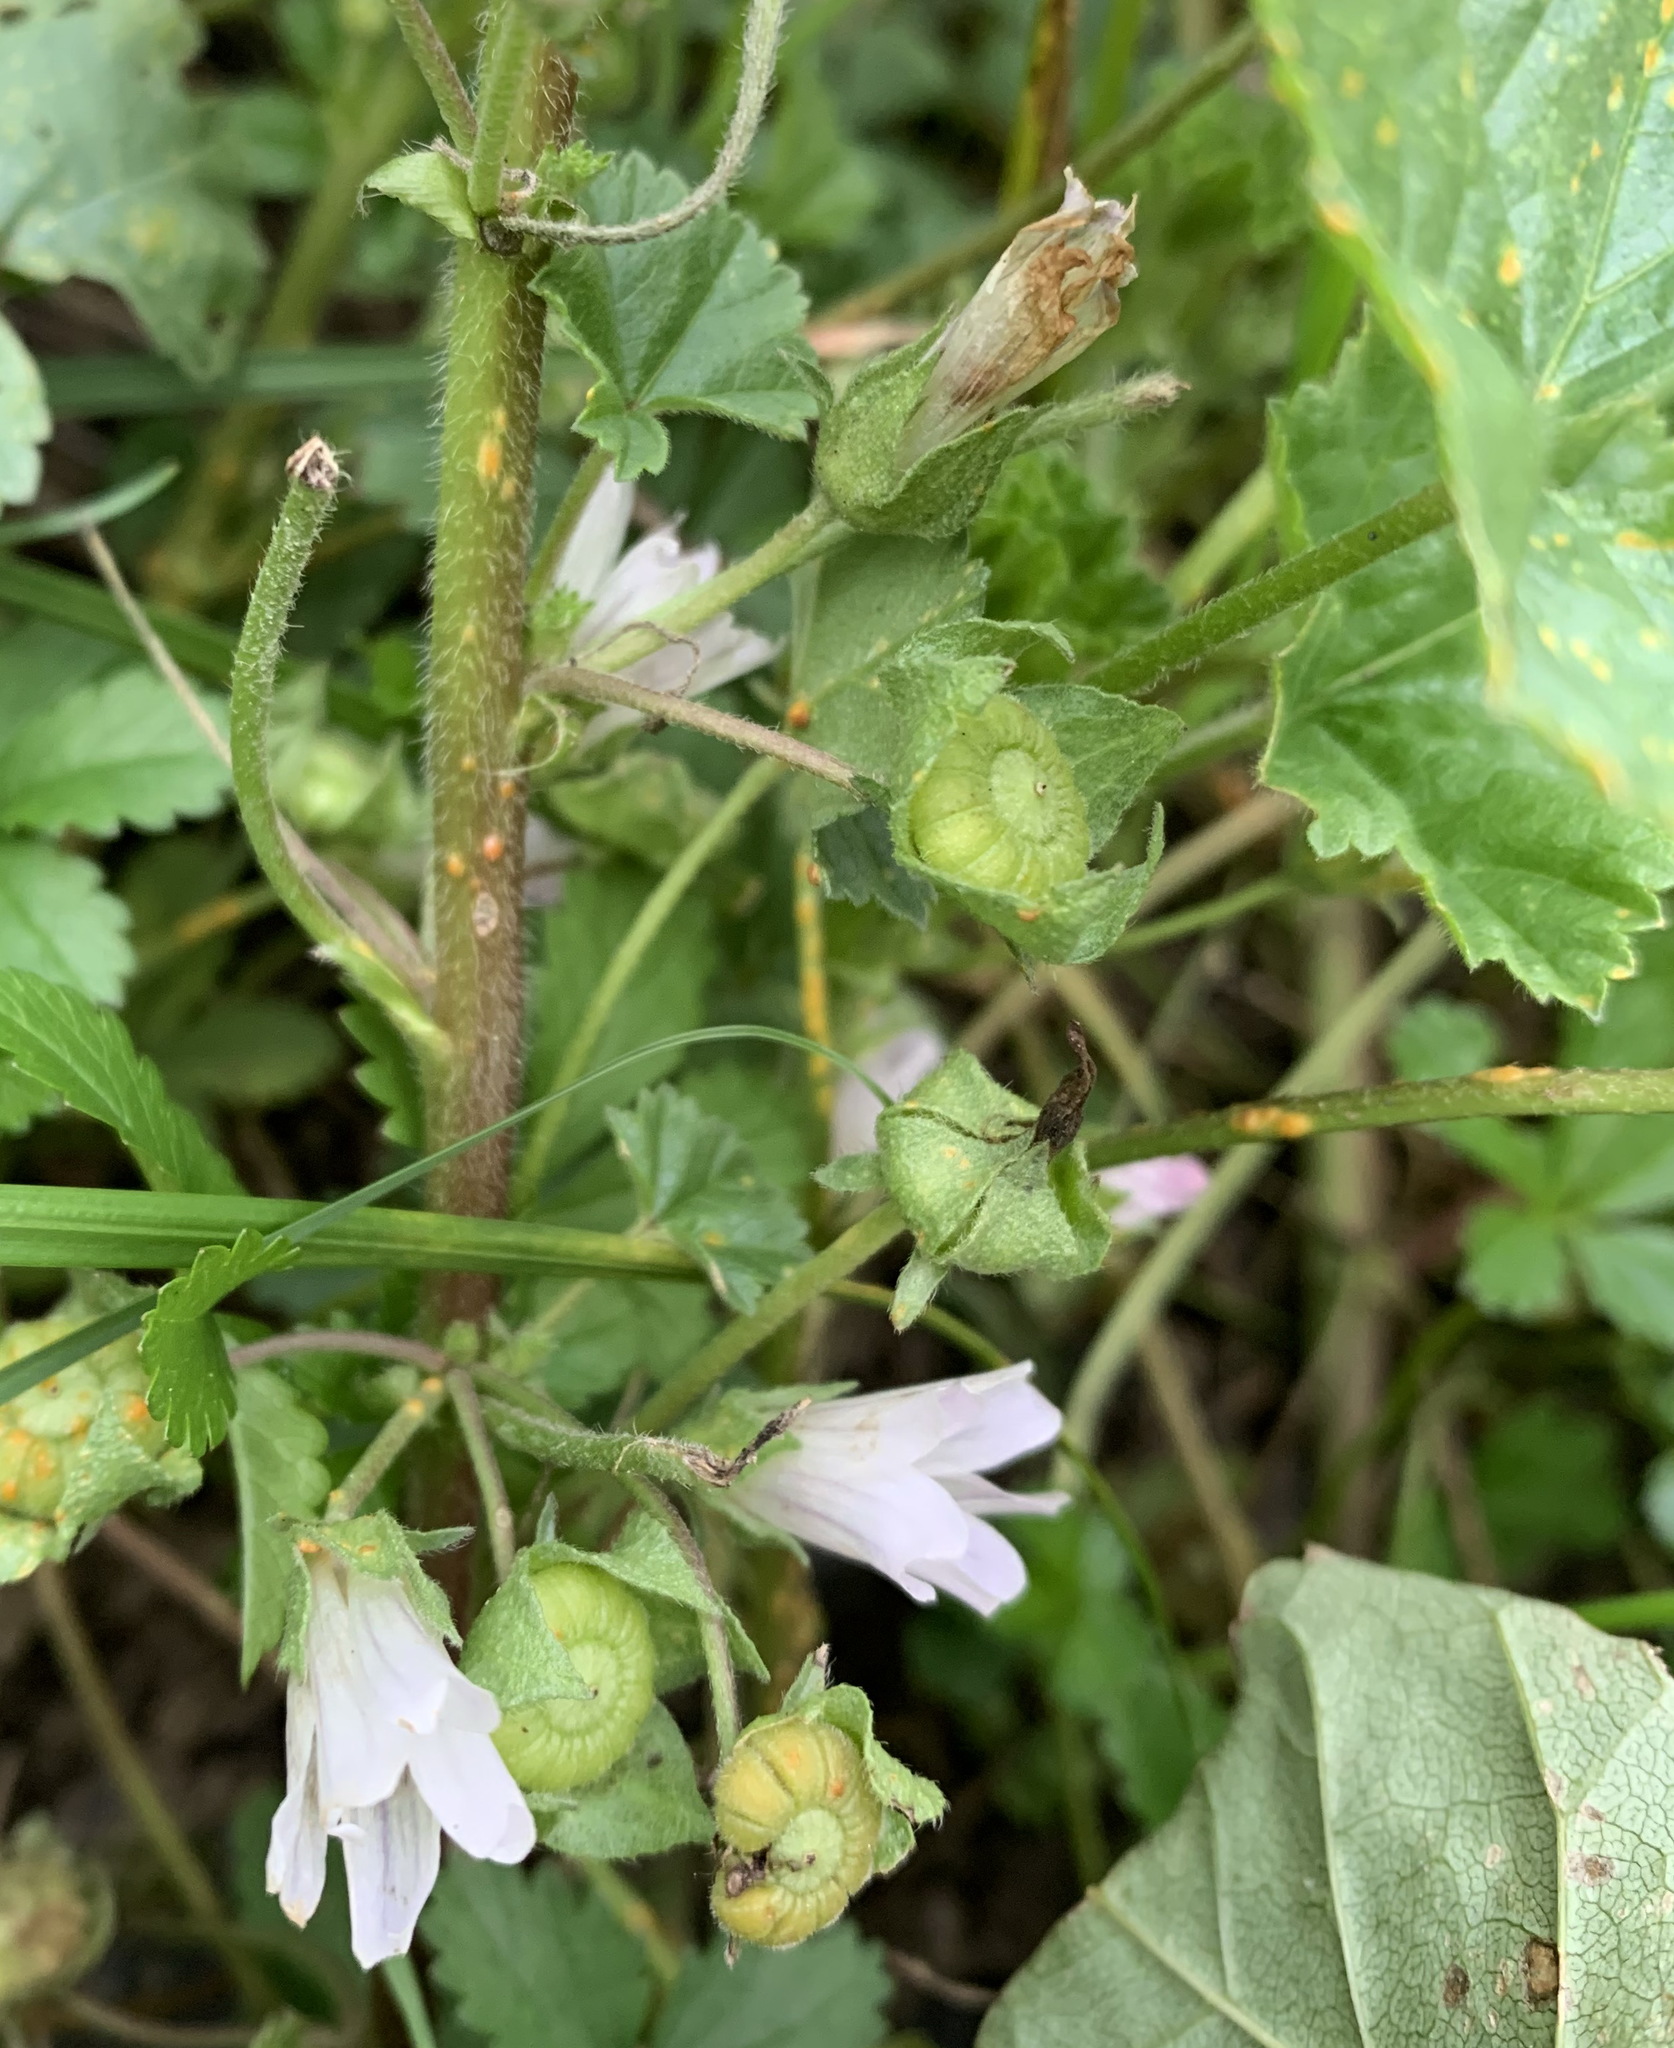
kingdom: Plantae
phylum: Tracheophyta
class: Magnoliopsida
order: Malvales
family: Malvaceae
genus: Malva
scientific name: Malva neglecta
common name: Common mallow
